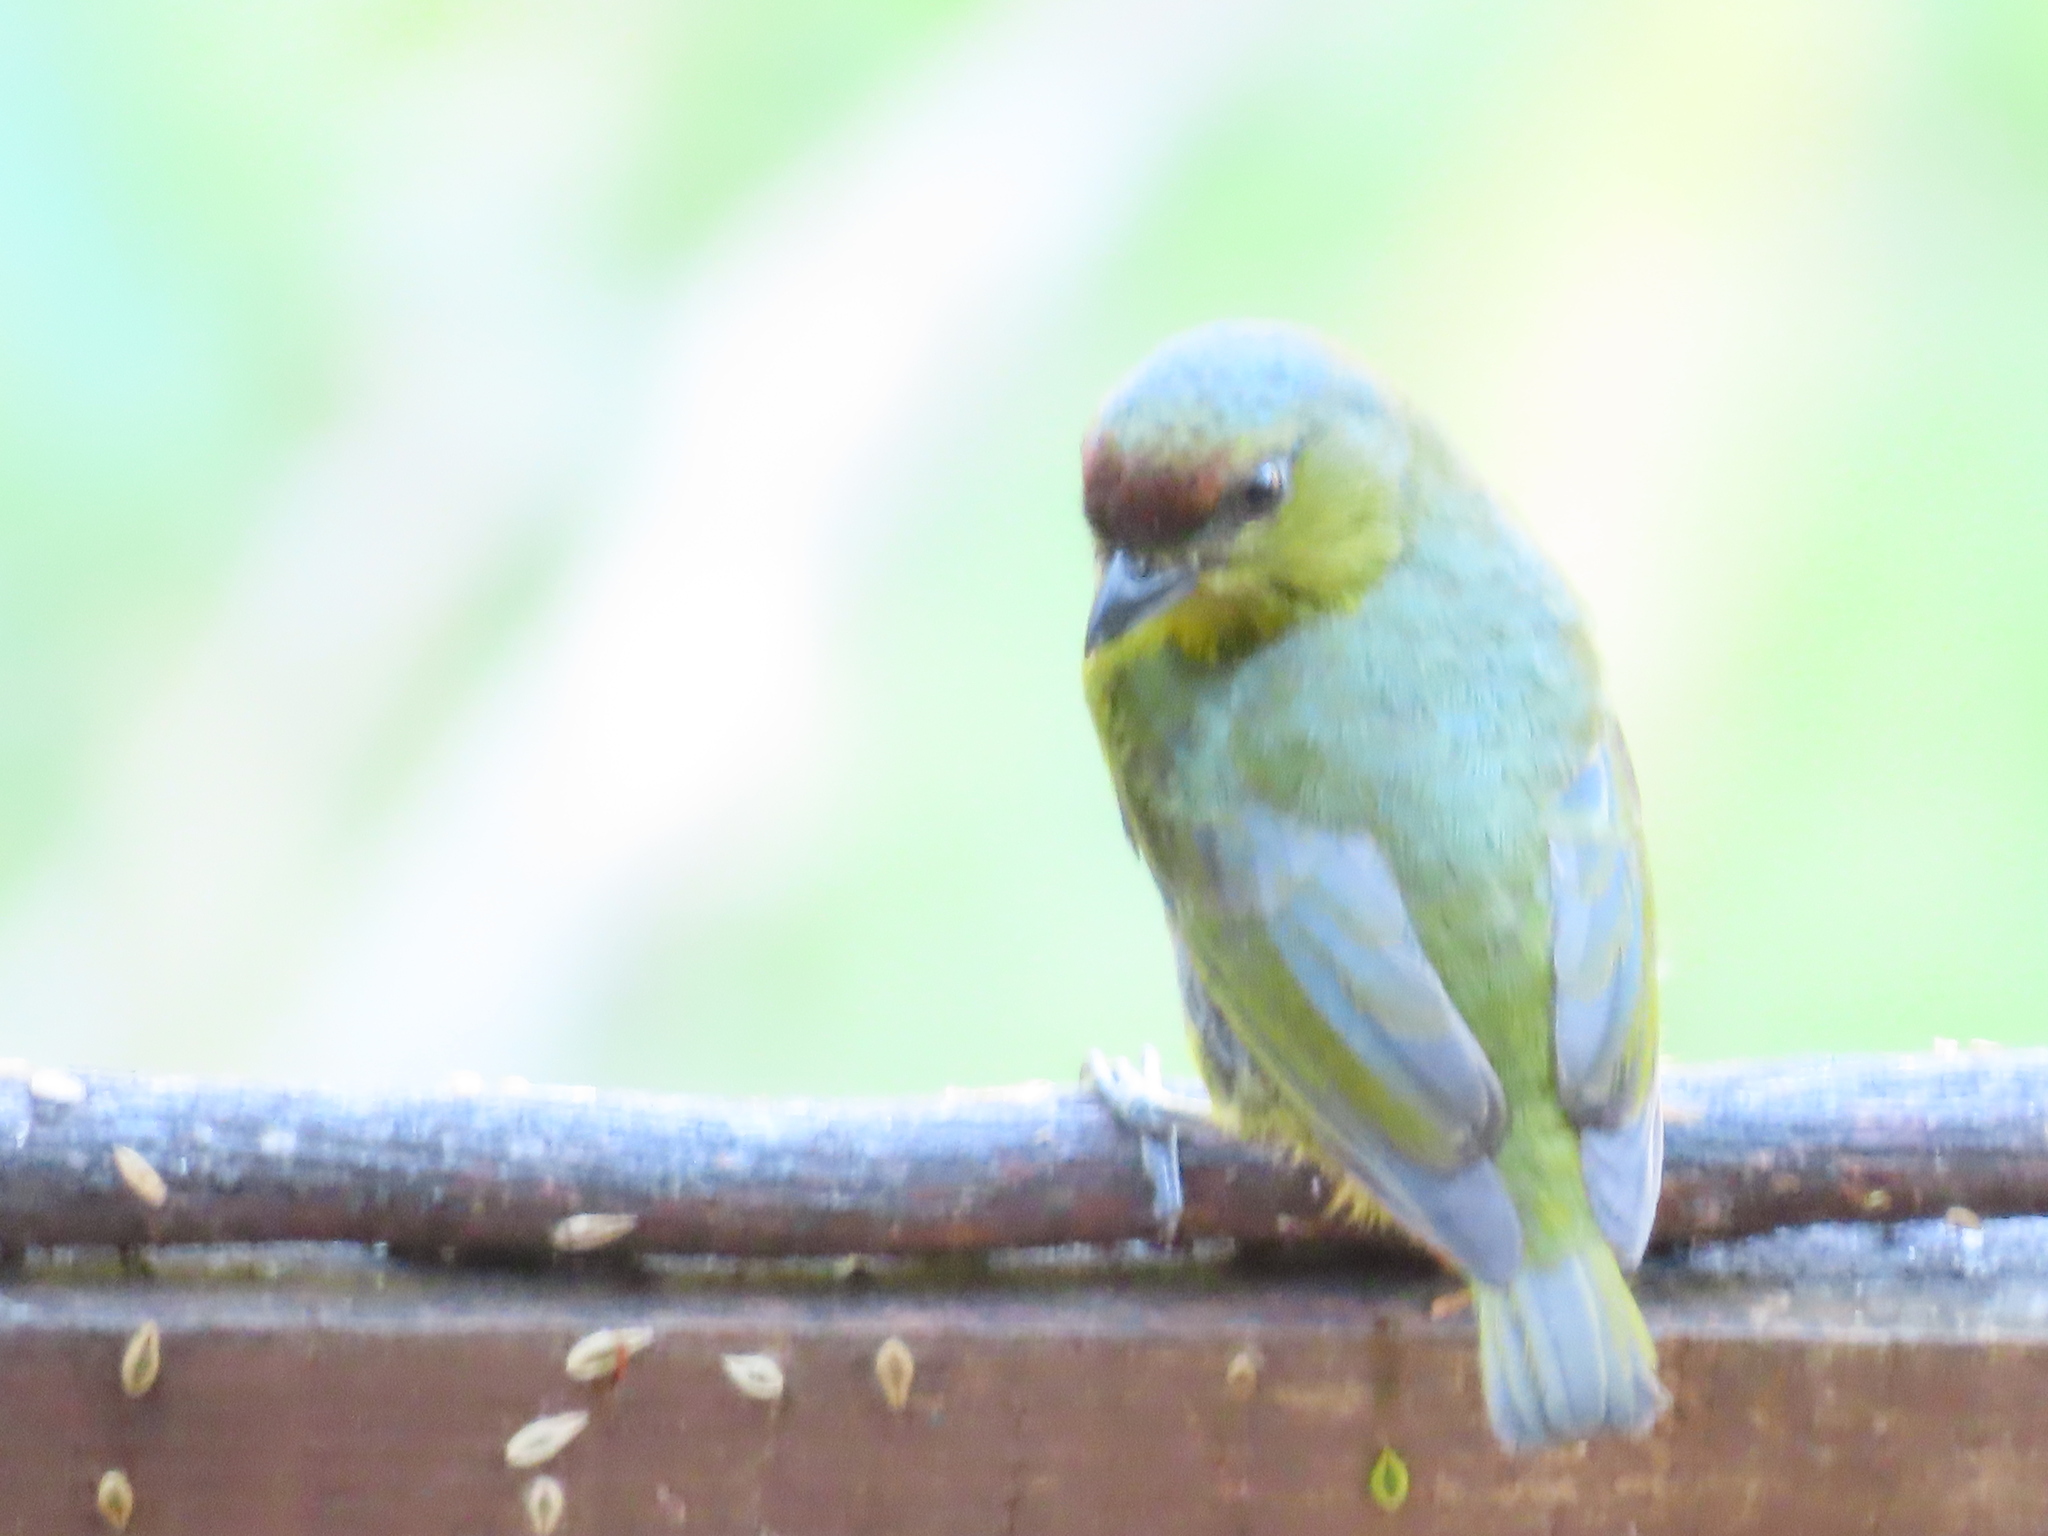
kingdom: Animalia
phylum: Chordata
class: Aves
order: Passeriformes
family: Fringillidae
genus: Euphonia
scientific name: Euphonia gouldi
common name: Olive-backed euphonia
